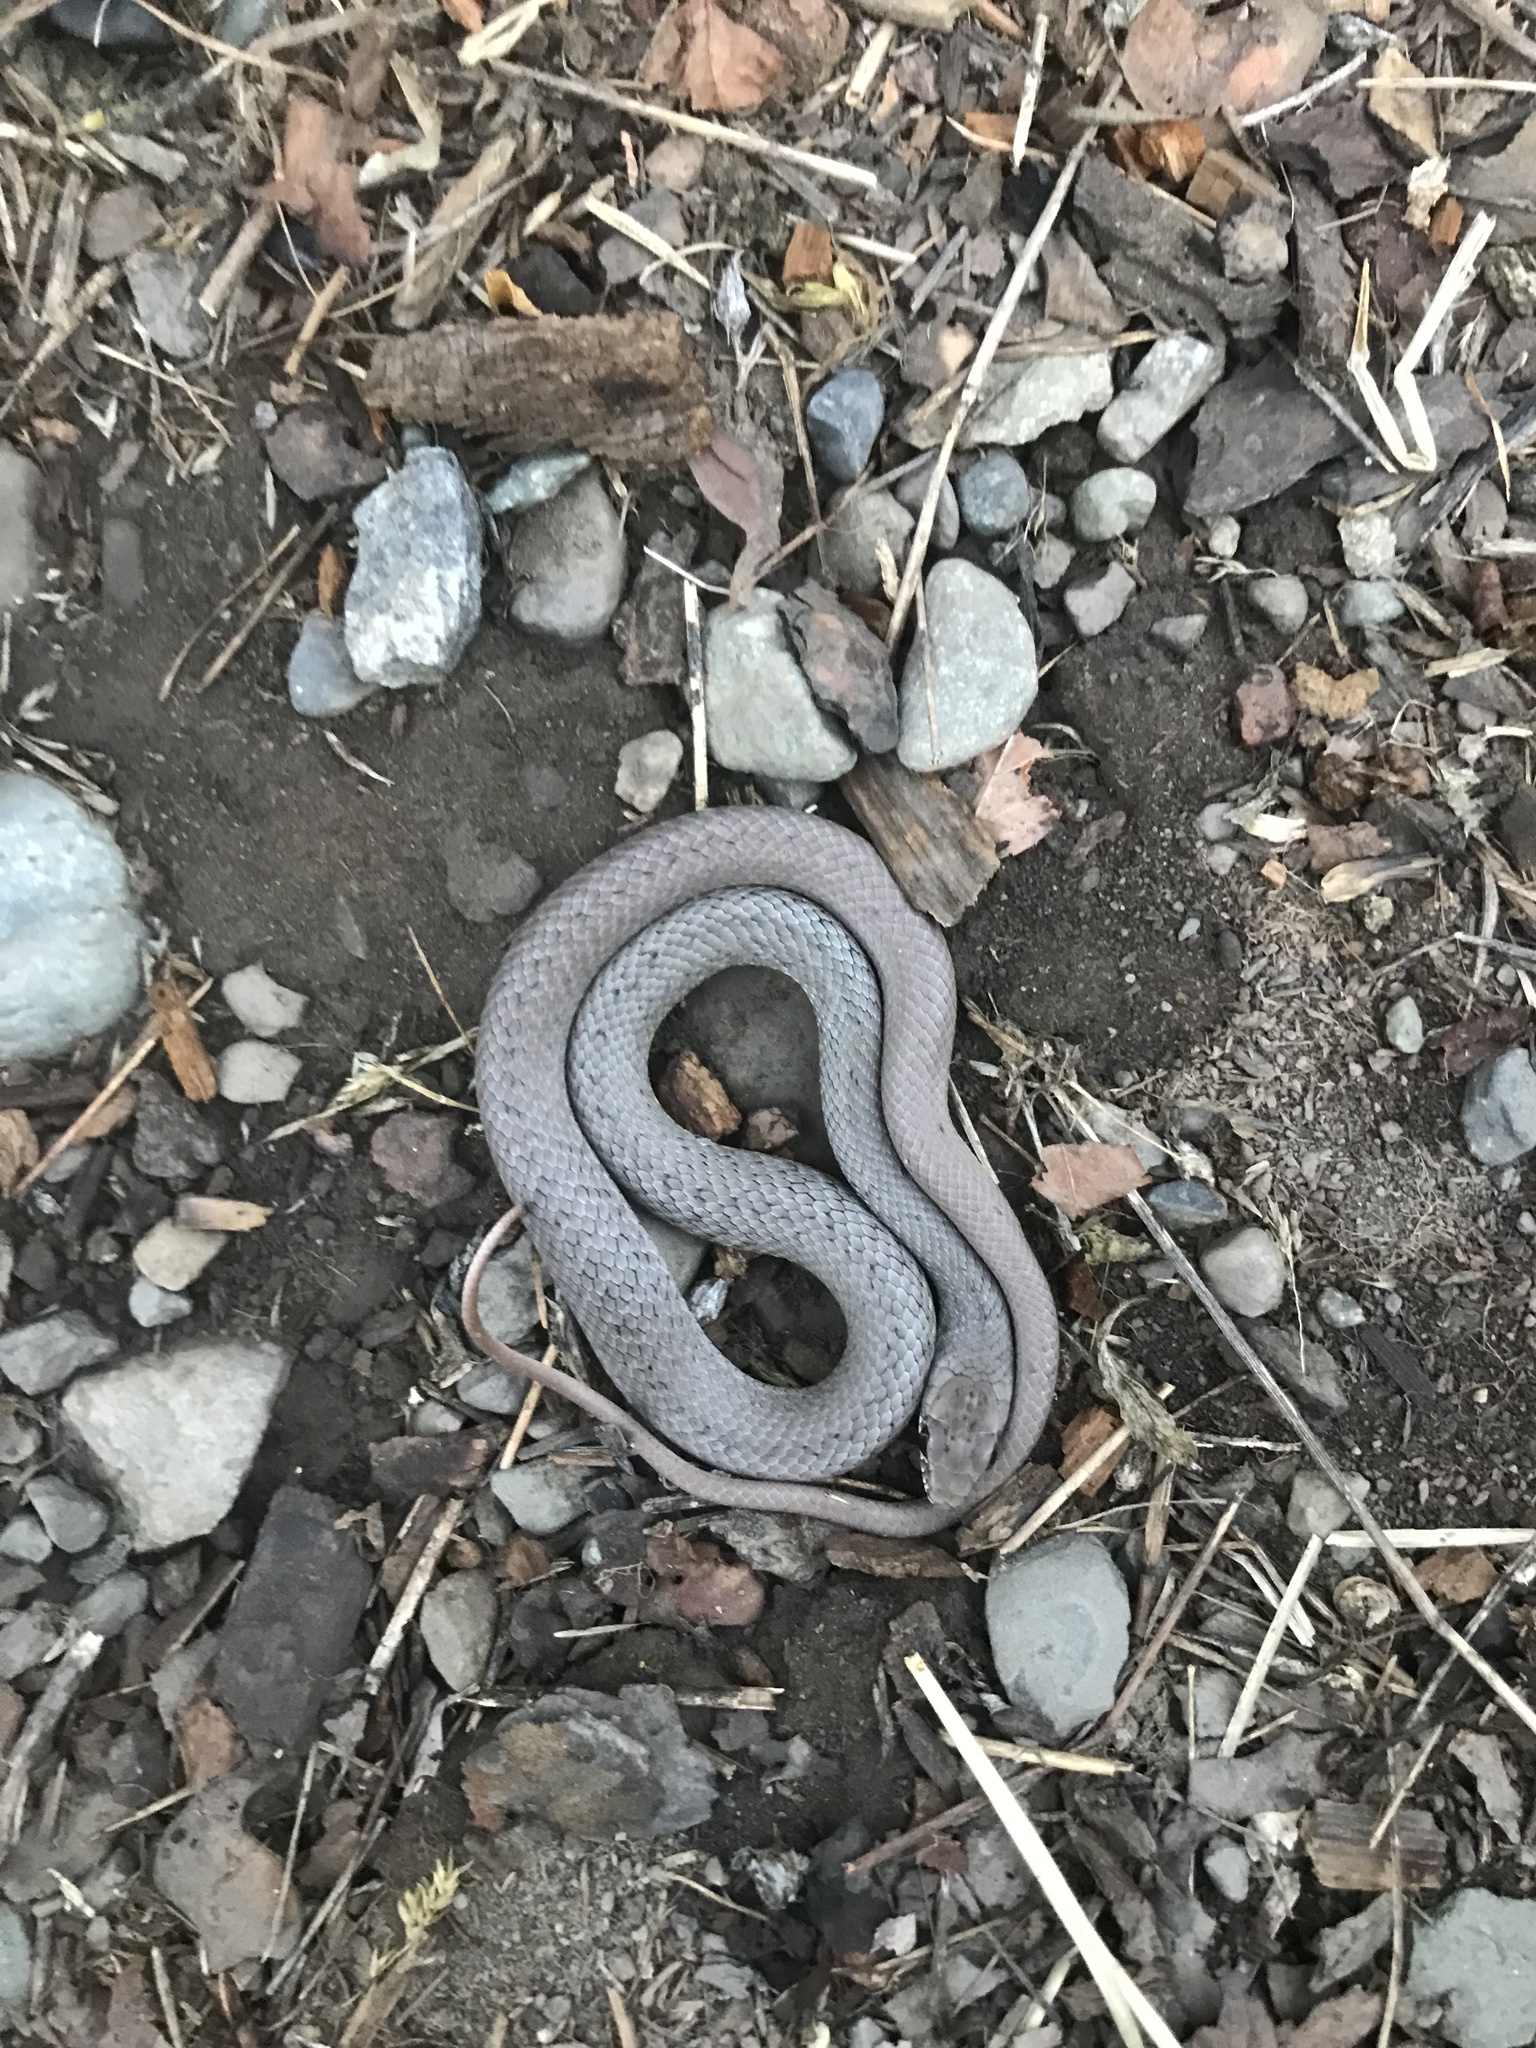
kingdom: Animalia
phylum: Chordata
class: Squamata
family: Colubridae
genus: Coluber
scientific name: Coluber constrictor
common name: Eastern racer
